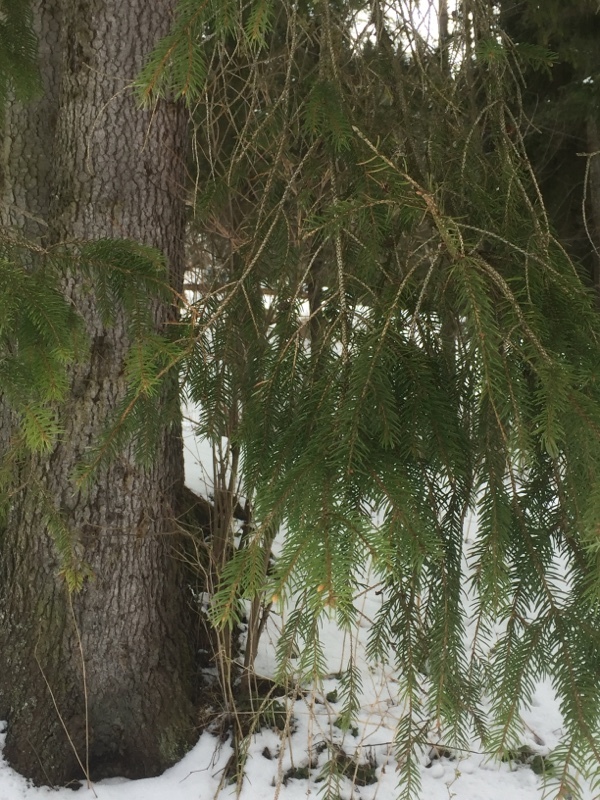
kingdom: Plantae
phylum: Tracheophyta
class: Pinopsida
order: Pinales
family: Pinaceae
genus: Picea
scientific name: Picea abies
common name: Norway spruce
